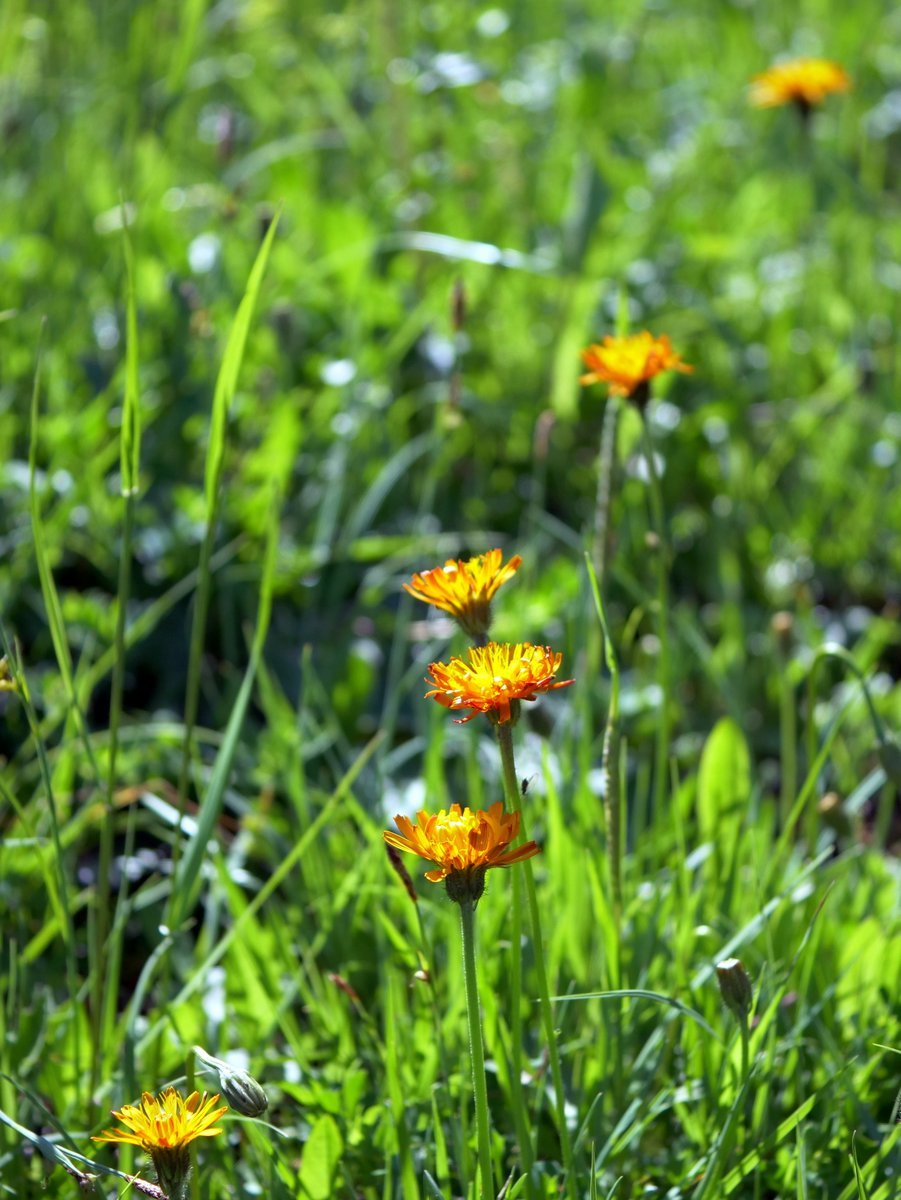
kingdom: Plantae
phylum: Tracheophyta
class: Magnoliopsida
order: Asterales
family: Asteraceae
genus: Crepis
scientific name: Crepis aurea
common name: Golden hawk's-beard
